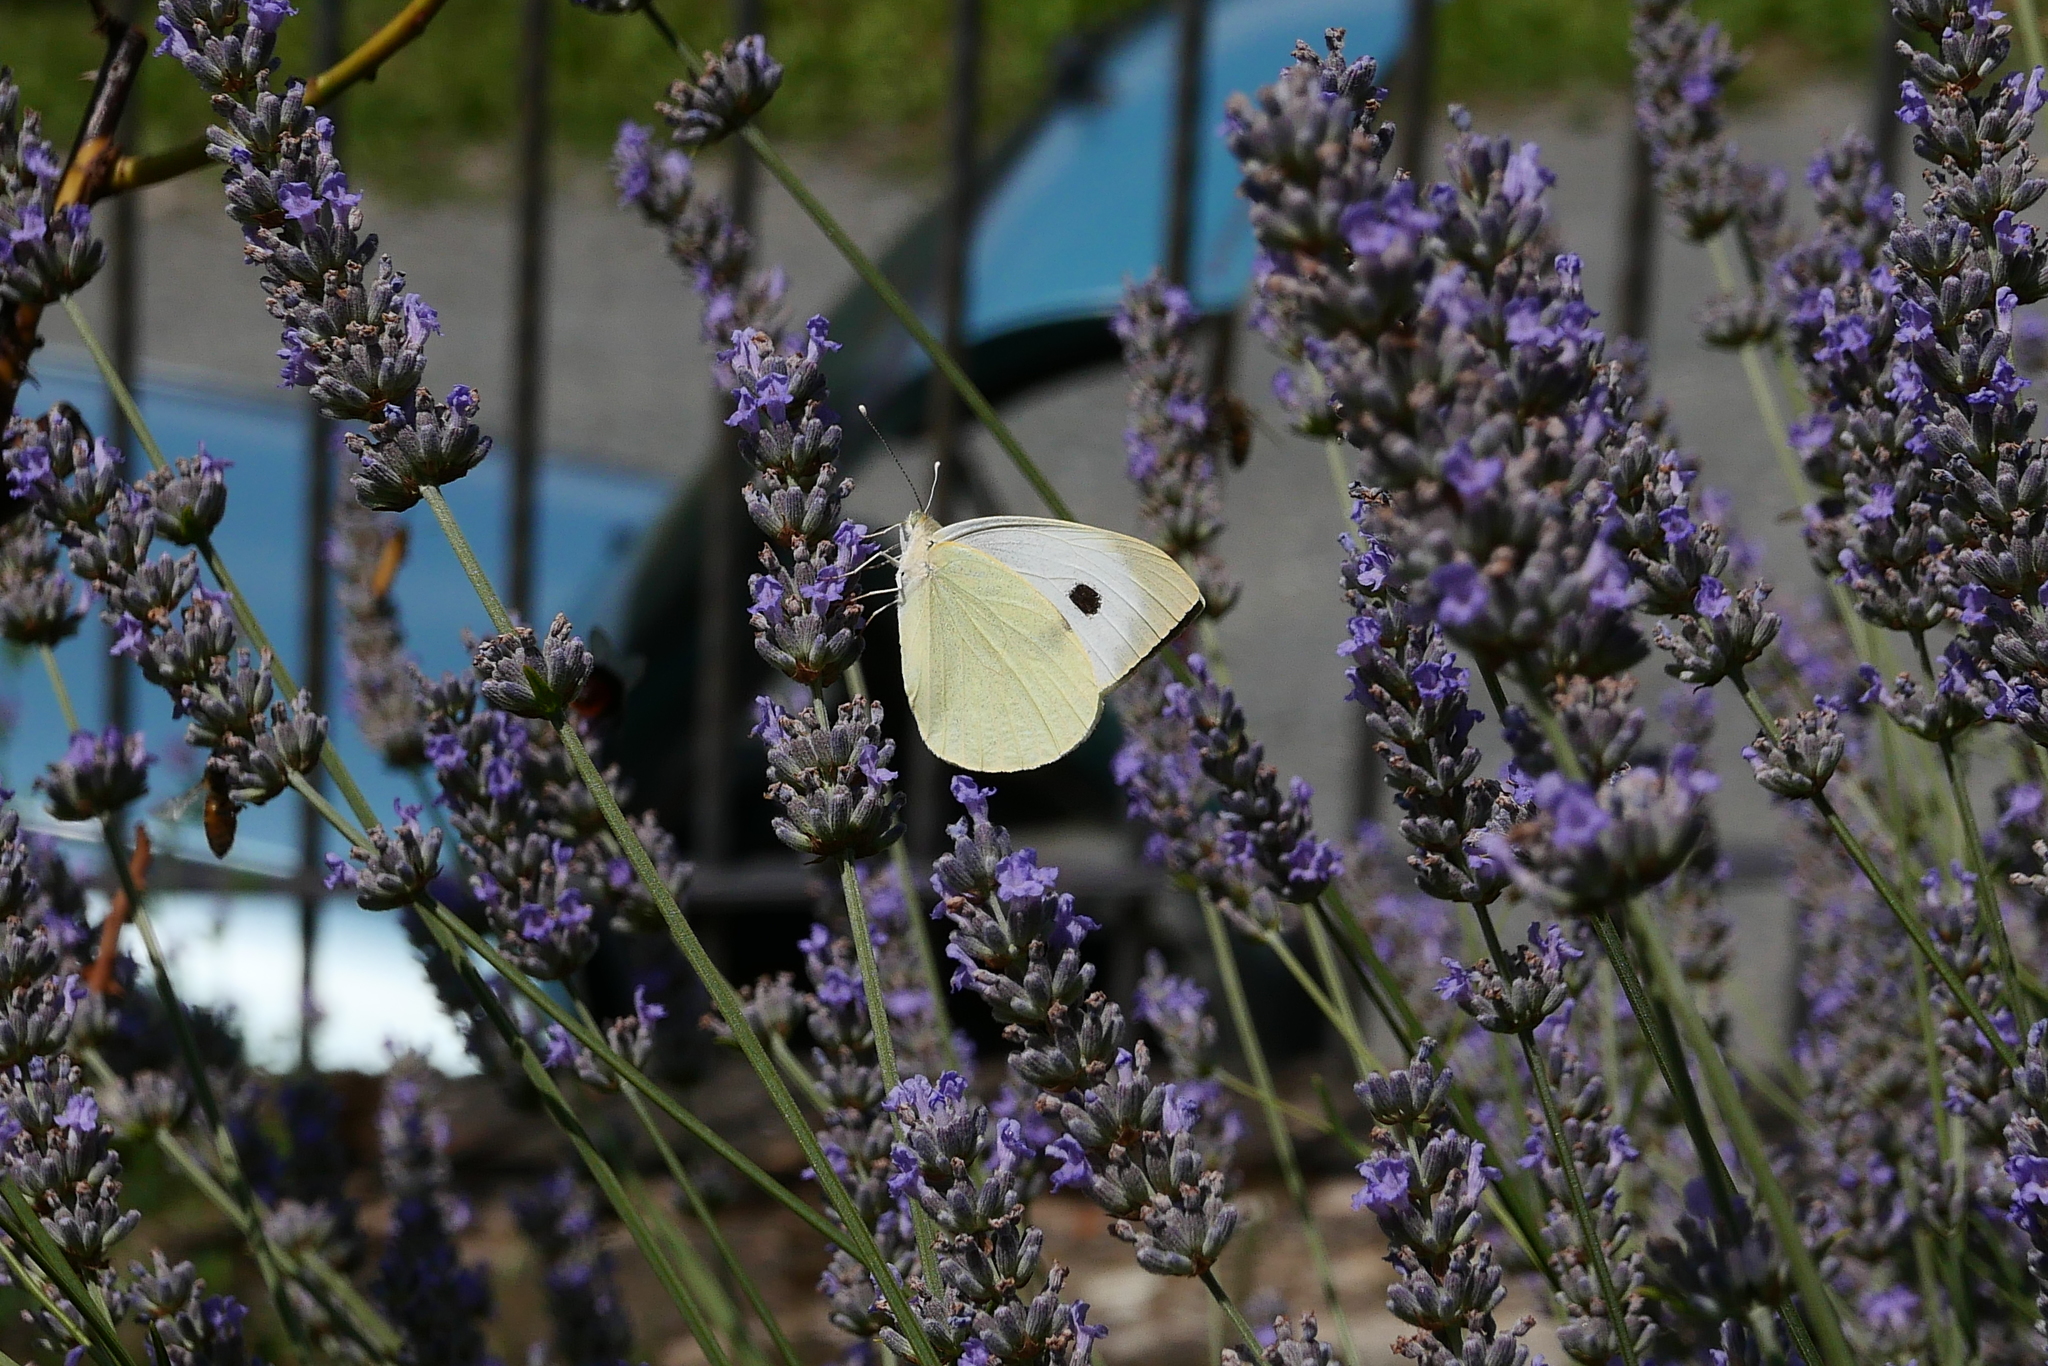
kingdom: Animalia
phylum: Arthropoda
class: Insecta
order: Lepidoptera
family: Pieridae
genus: Pieris
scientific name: Pieris brassicae
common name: Large white
